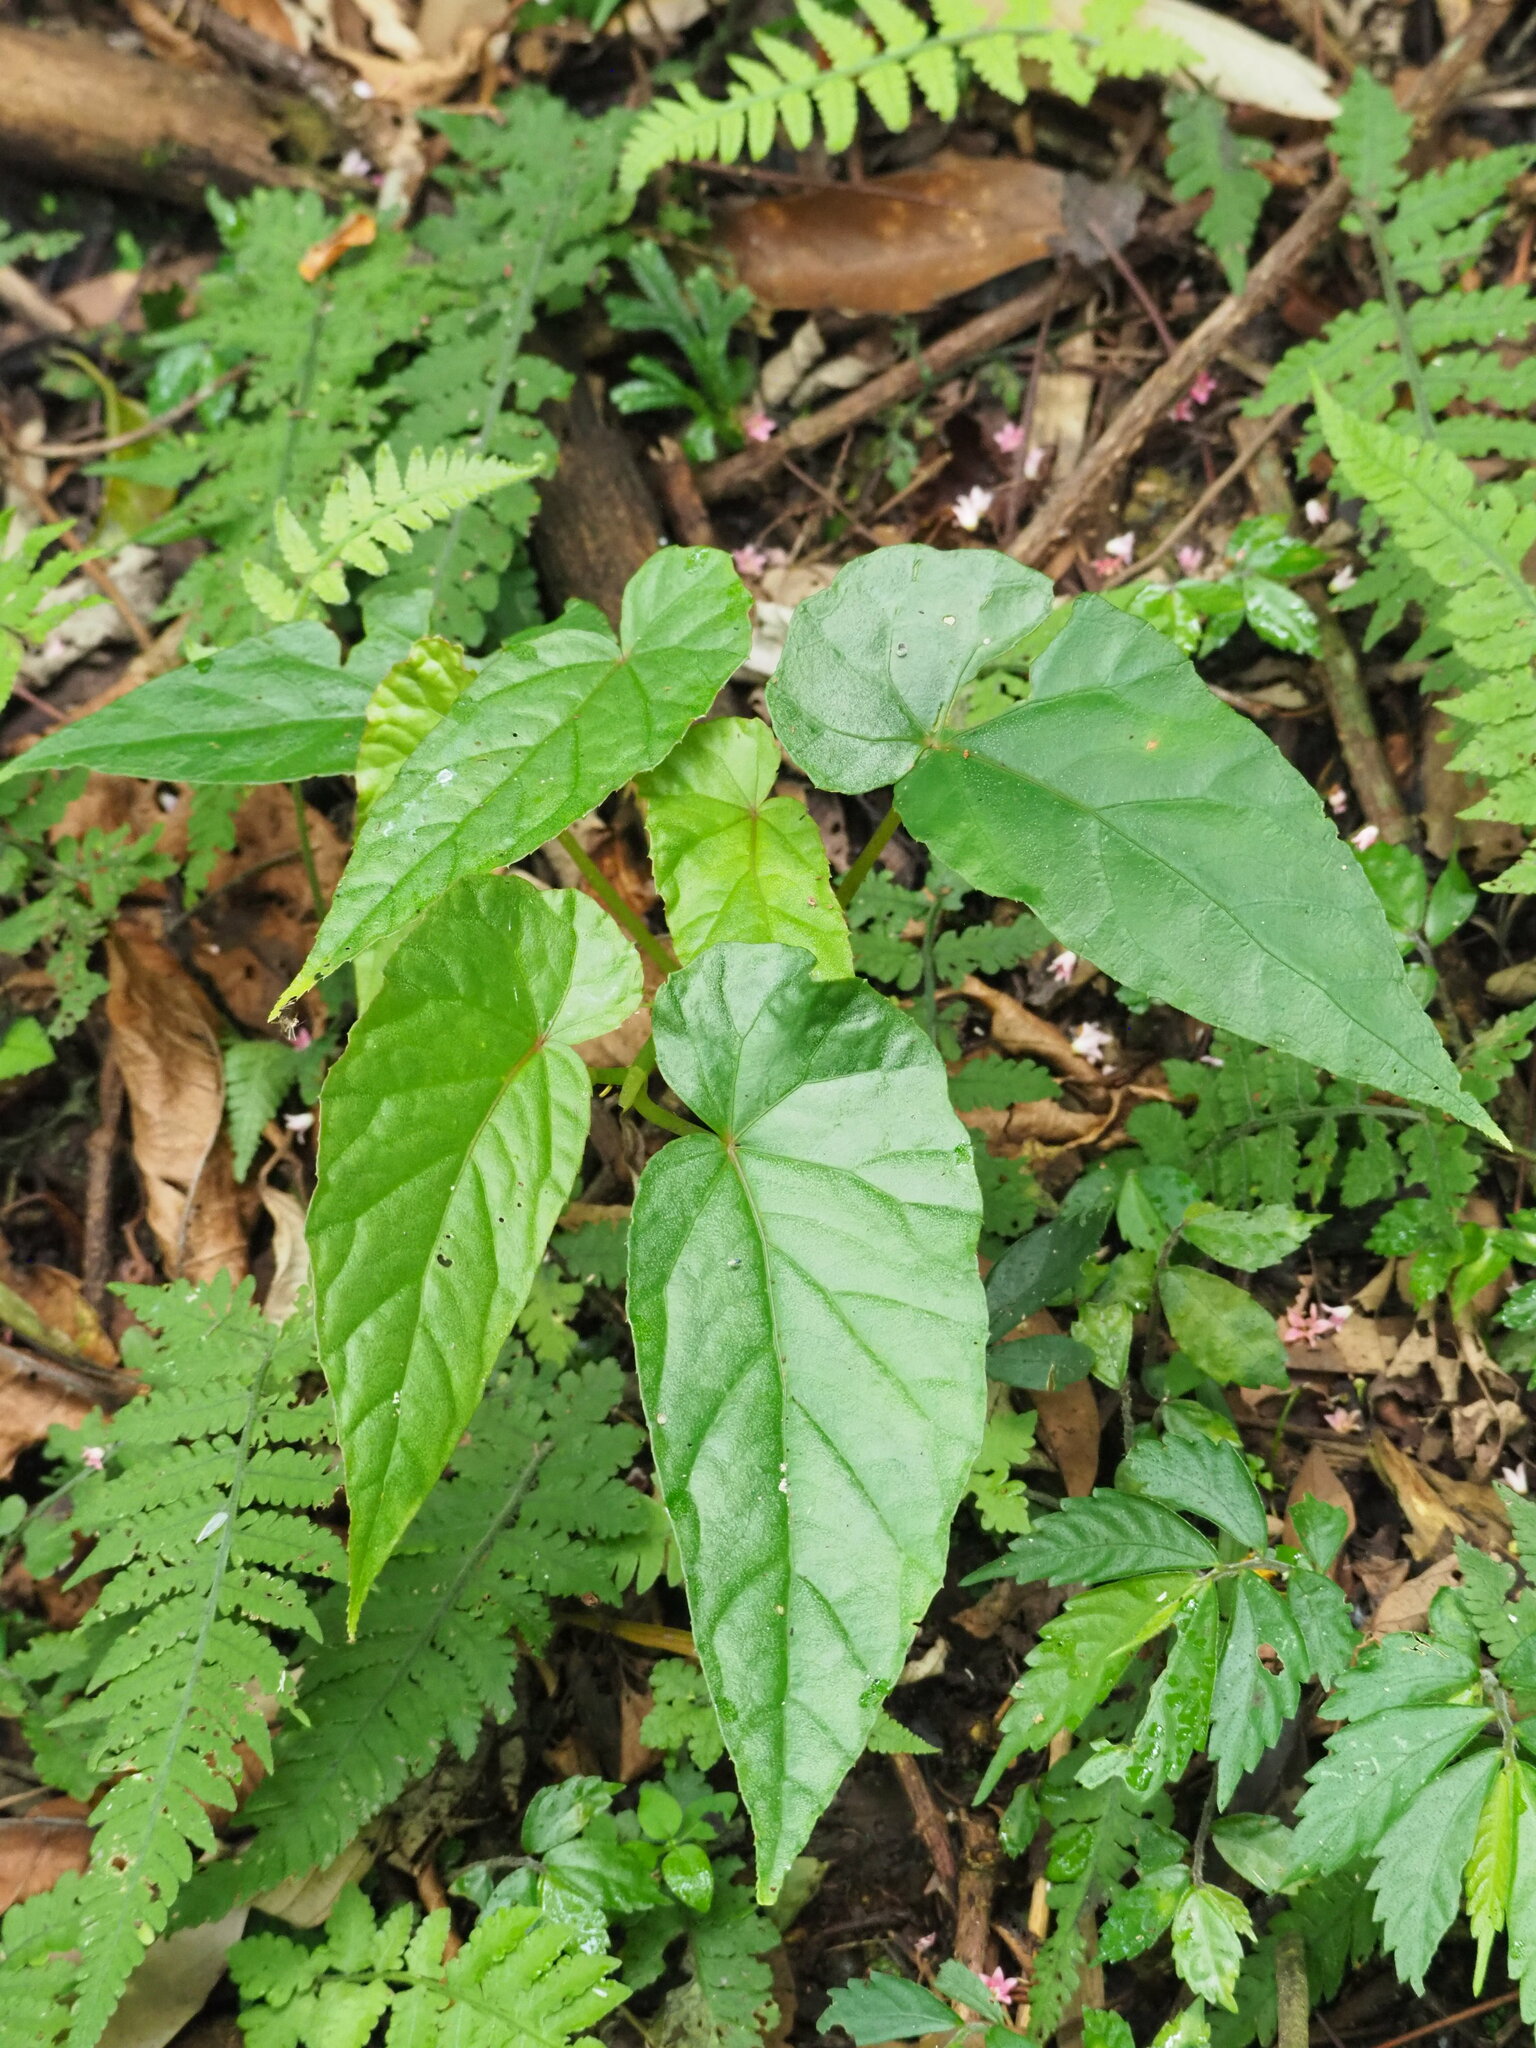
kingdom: Plantae
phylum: Tracheophyta
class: Magnoliopsida
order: Cucurbitales
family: Begoniaceae
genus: Begonia
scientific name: Begonia longifolia
